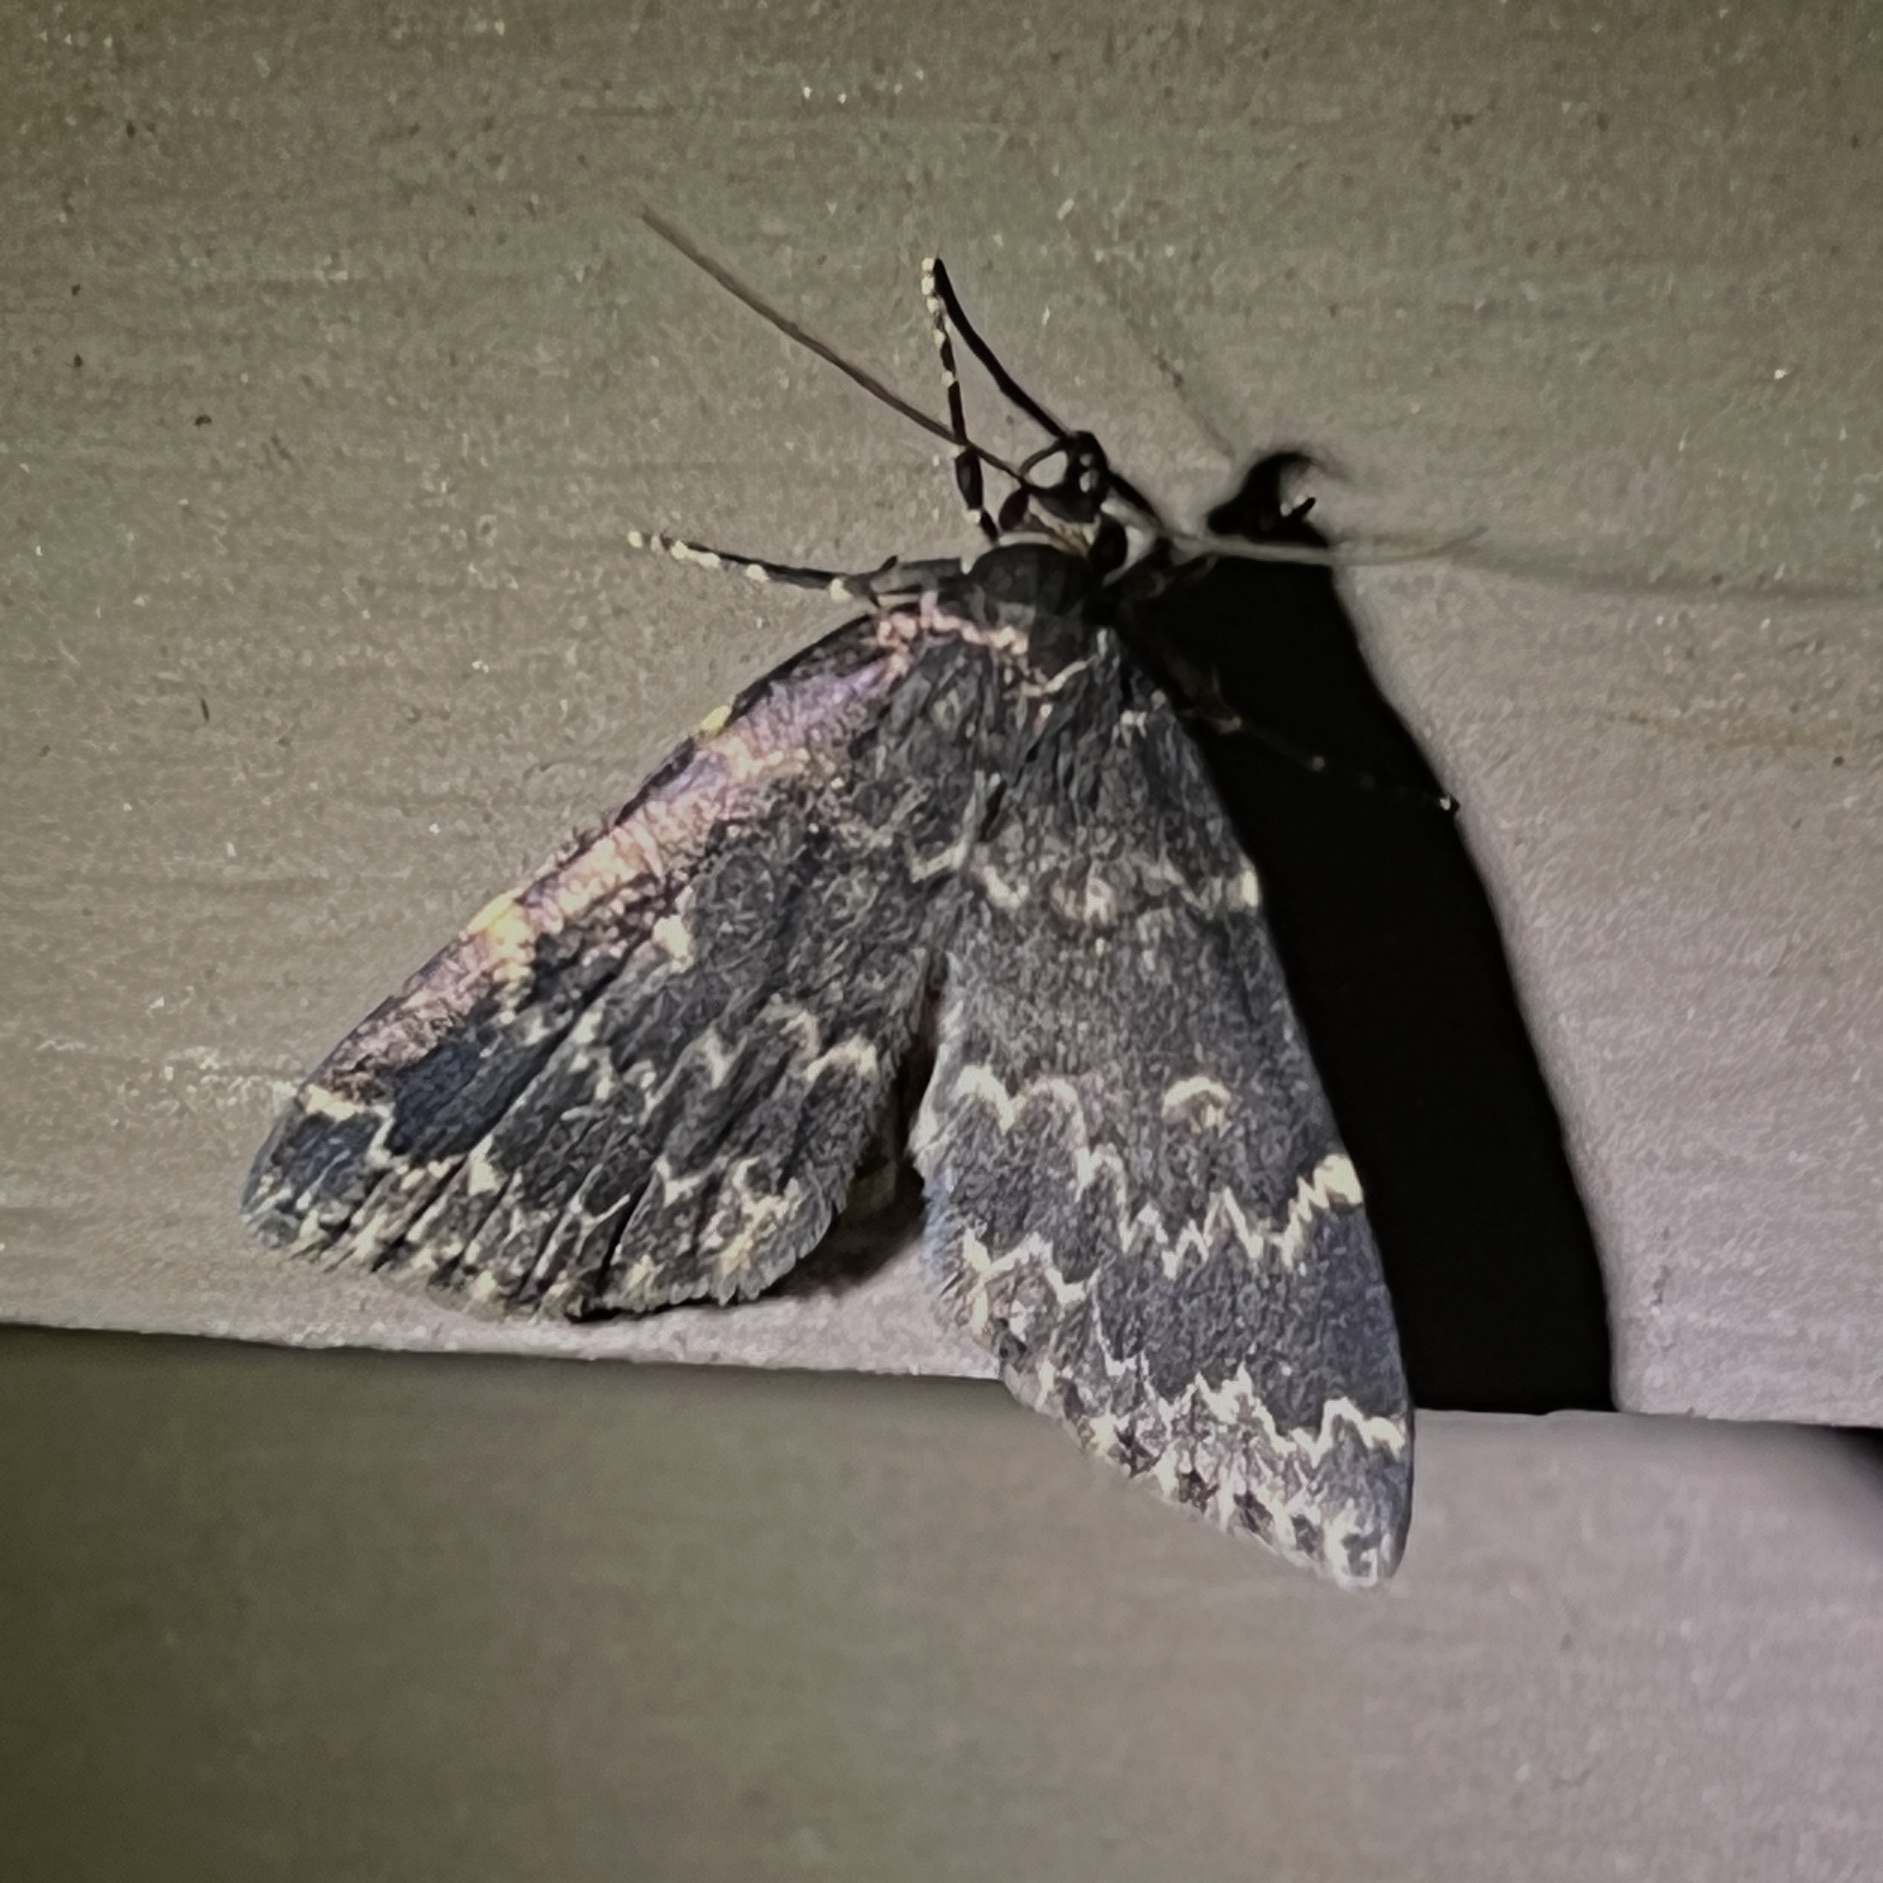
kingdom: Animalia
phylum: Arthropoda
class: Insecta
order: Lepidoptera
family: Erebidae
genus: Idia
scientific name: Idia lubricalis
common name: Twin-striped tabby
